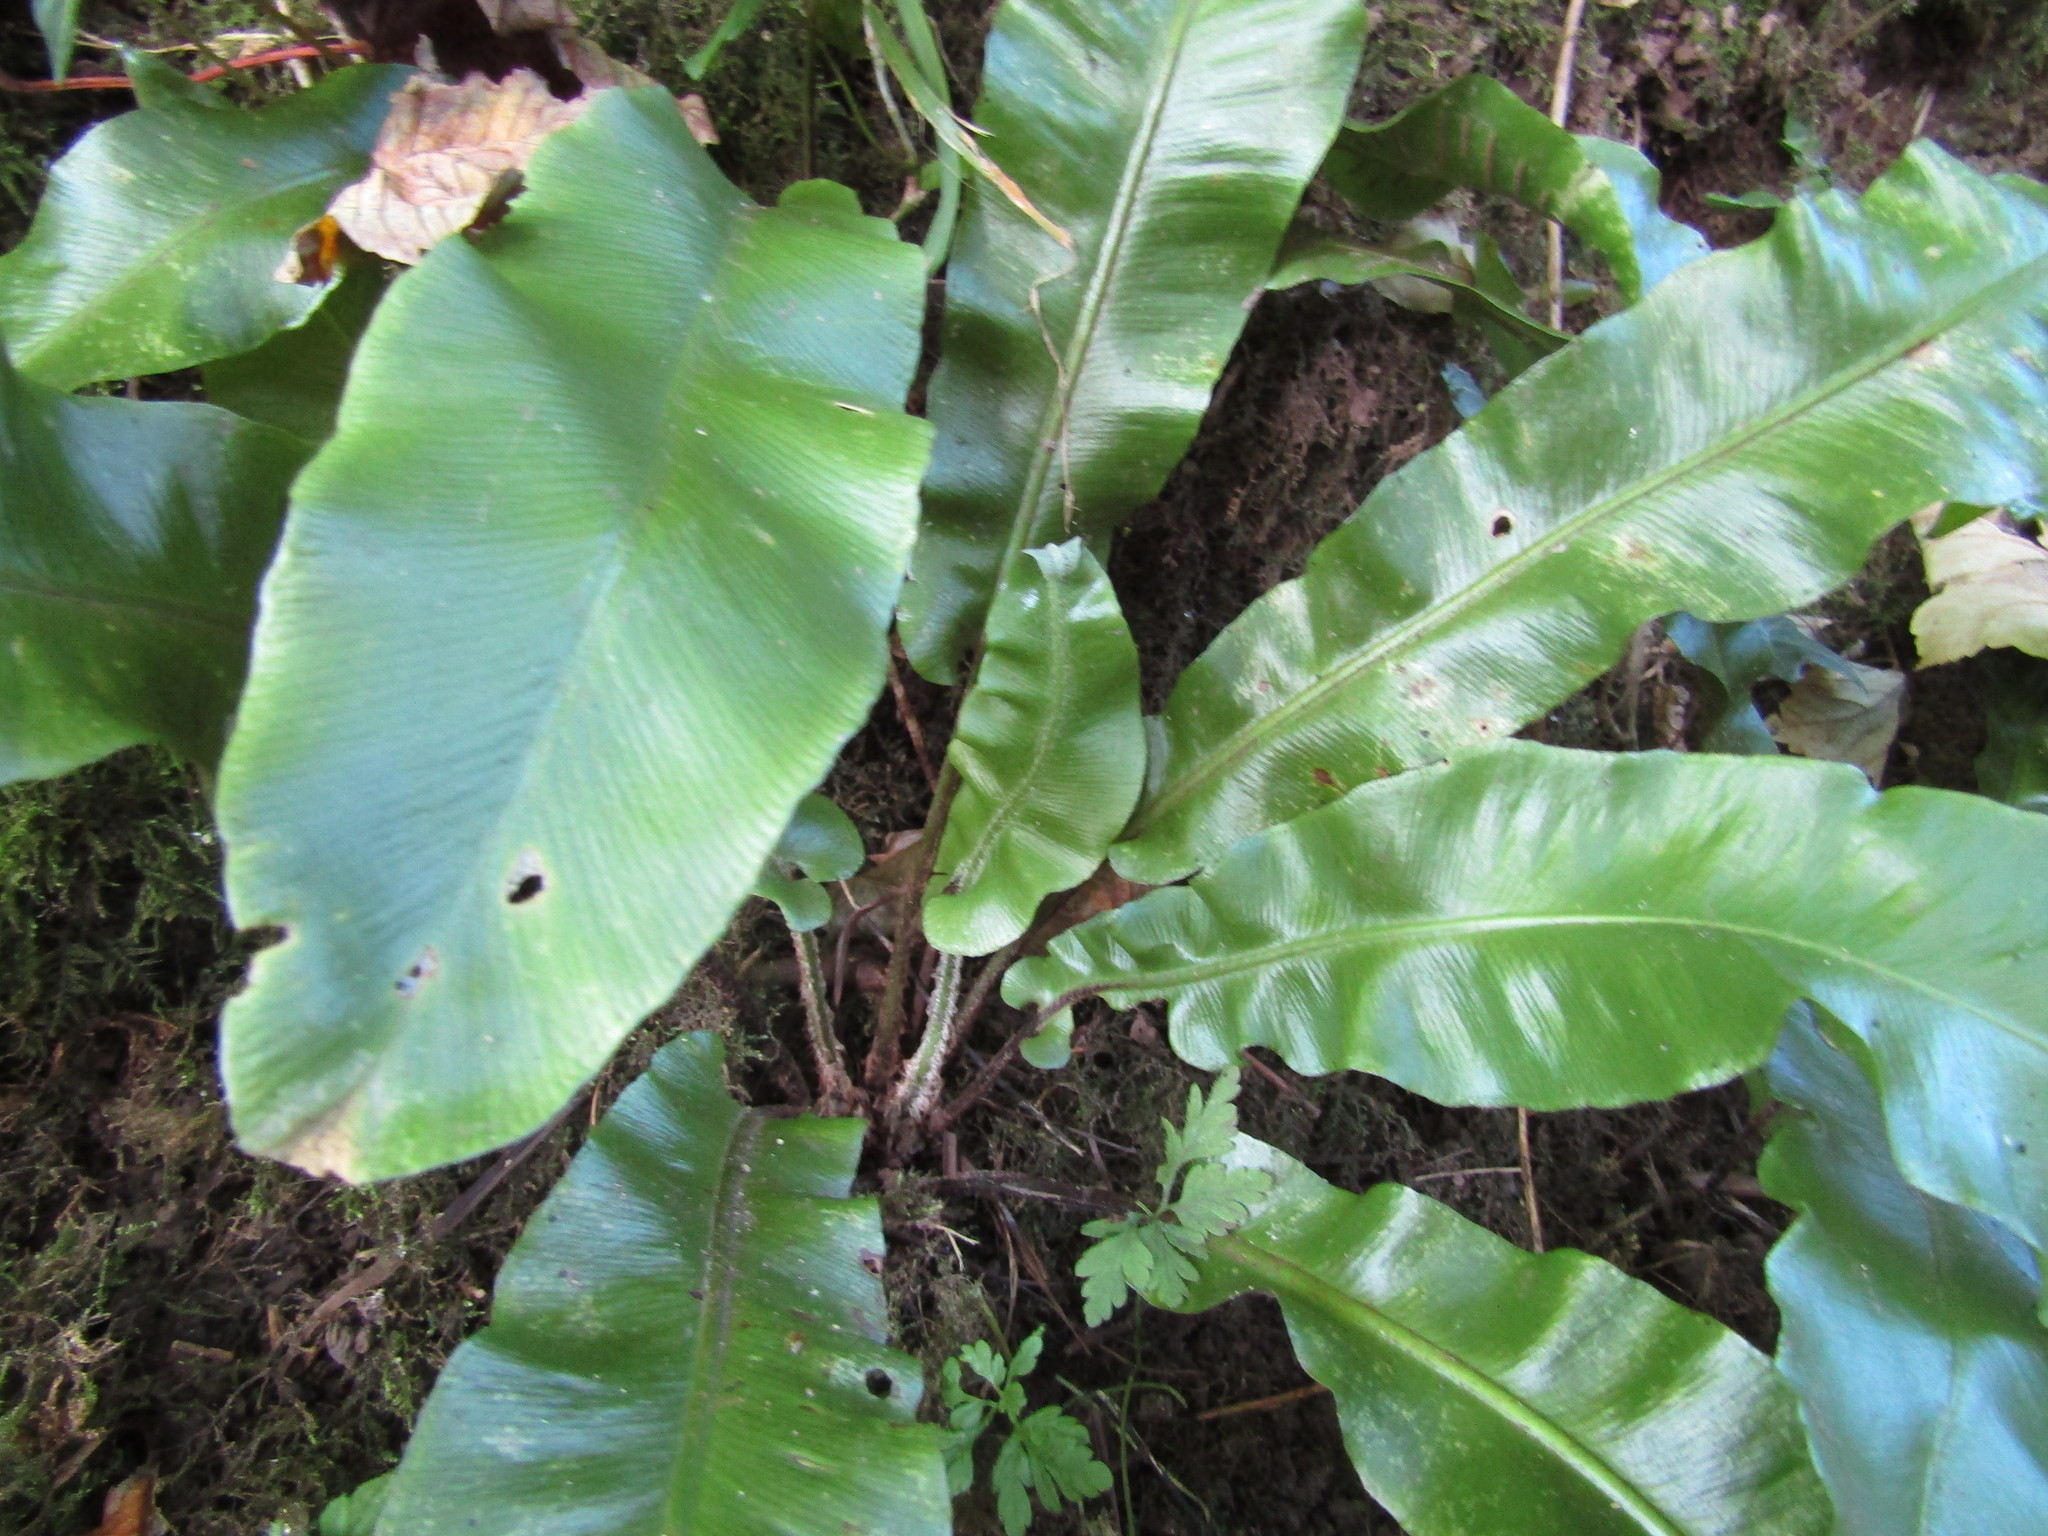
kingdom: Plantae
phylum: Tracheophyta
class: Polypodiopsida
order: Polypodiales
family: Aspleniaceae
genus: Asplenium
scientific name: Asplenium scolopendrium
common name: Hart's-tongue fern
